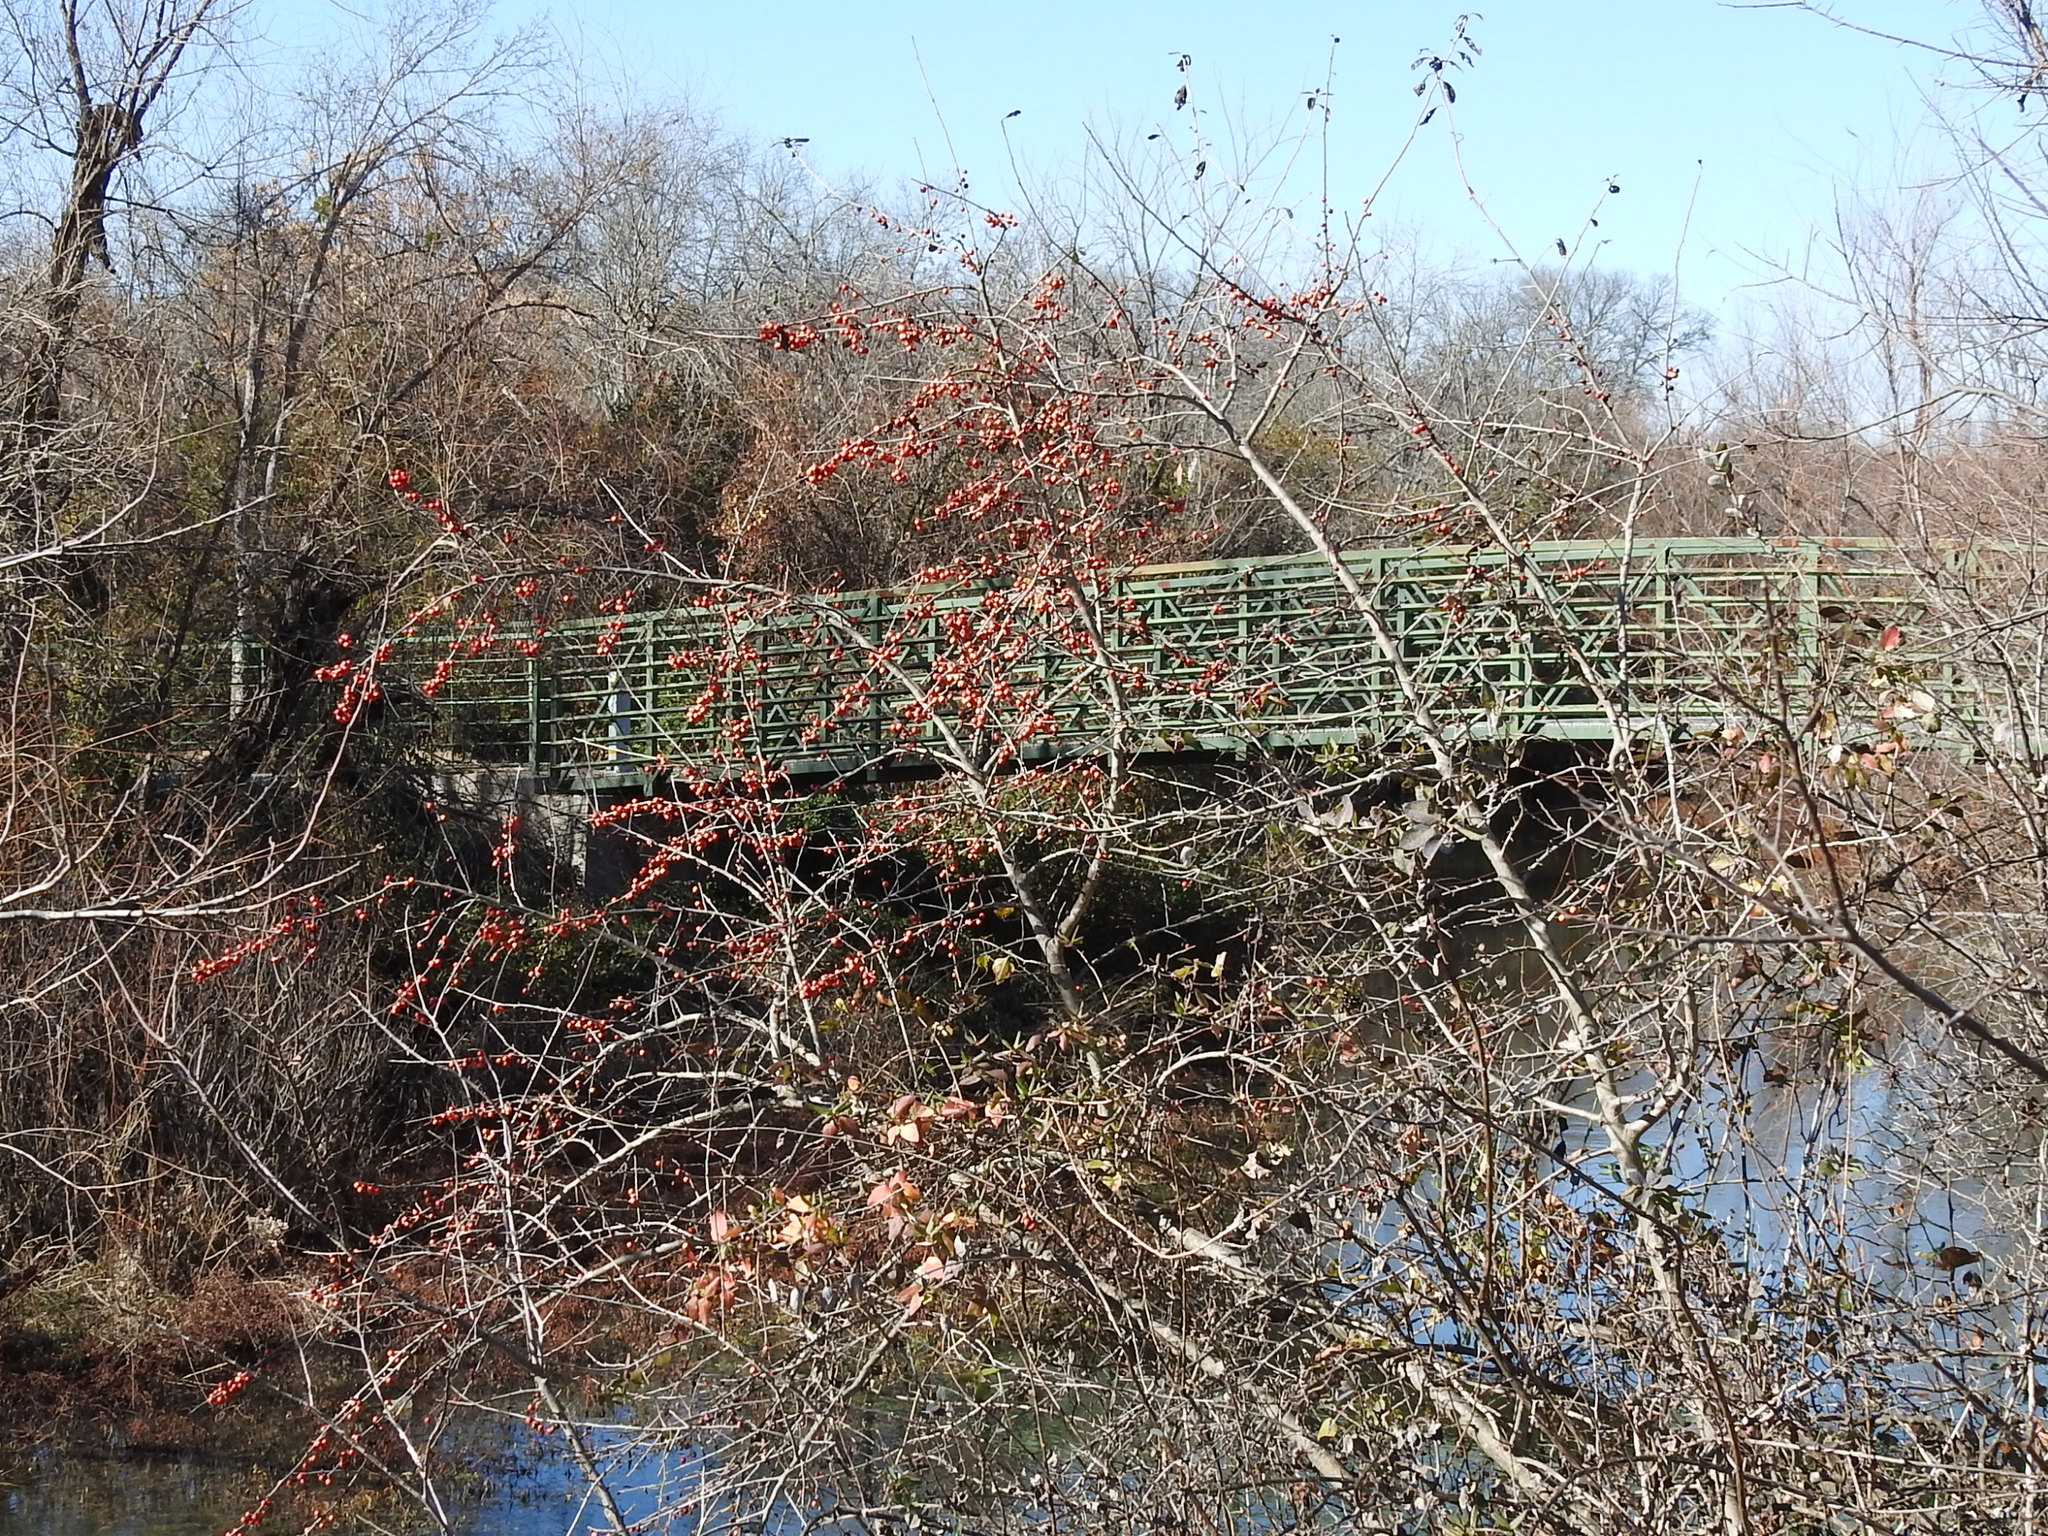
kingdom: Plantae
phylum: Tracheophyta
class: Magnoliopsida
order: Aquifoliales
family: Aquifoliaceae
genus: Ilex
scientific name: Ilex decidua
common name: Possum-haw
